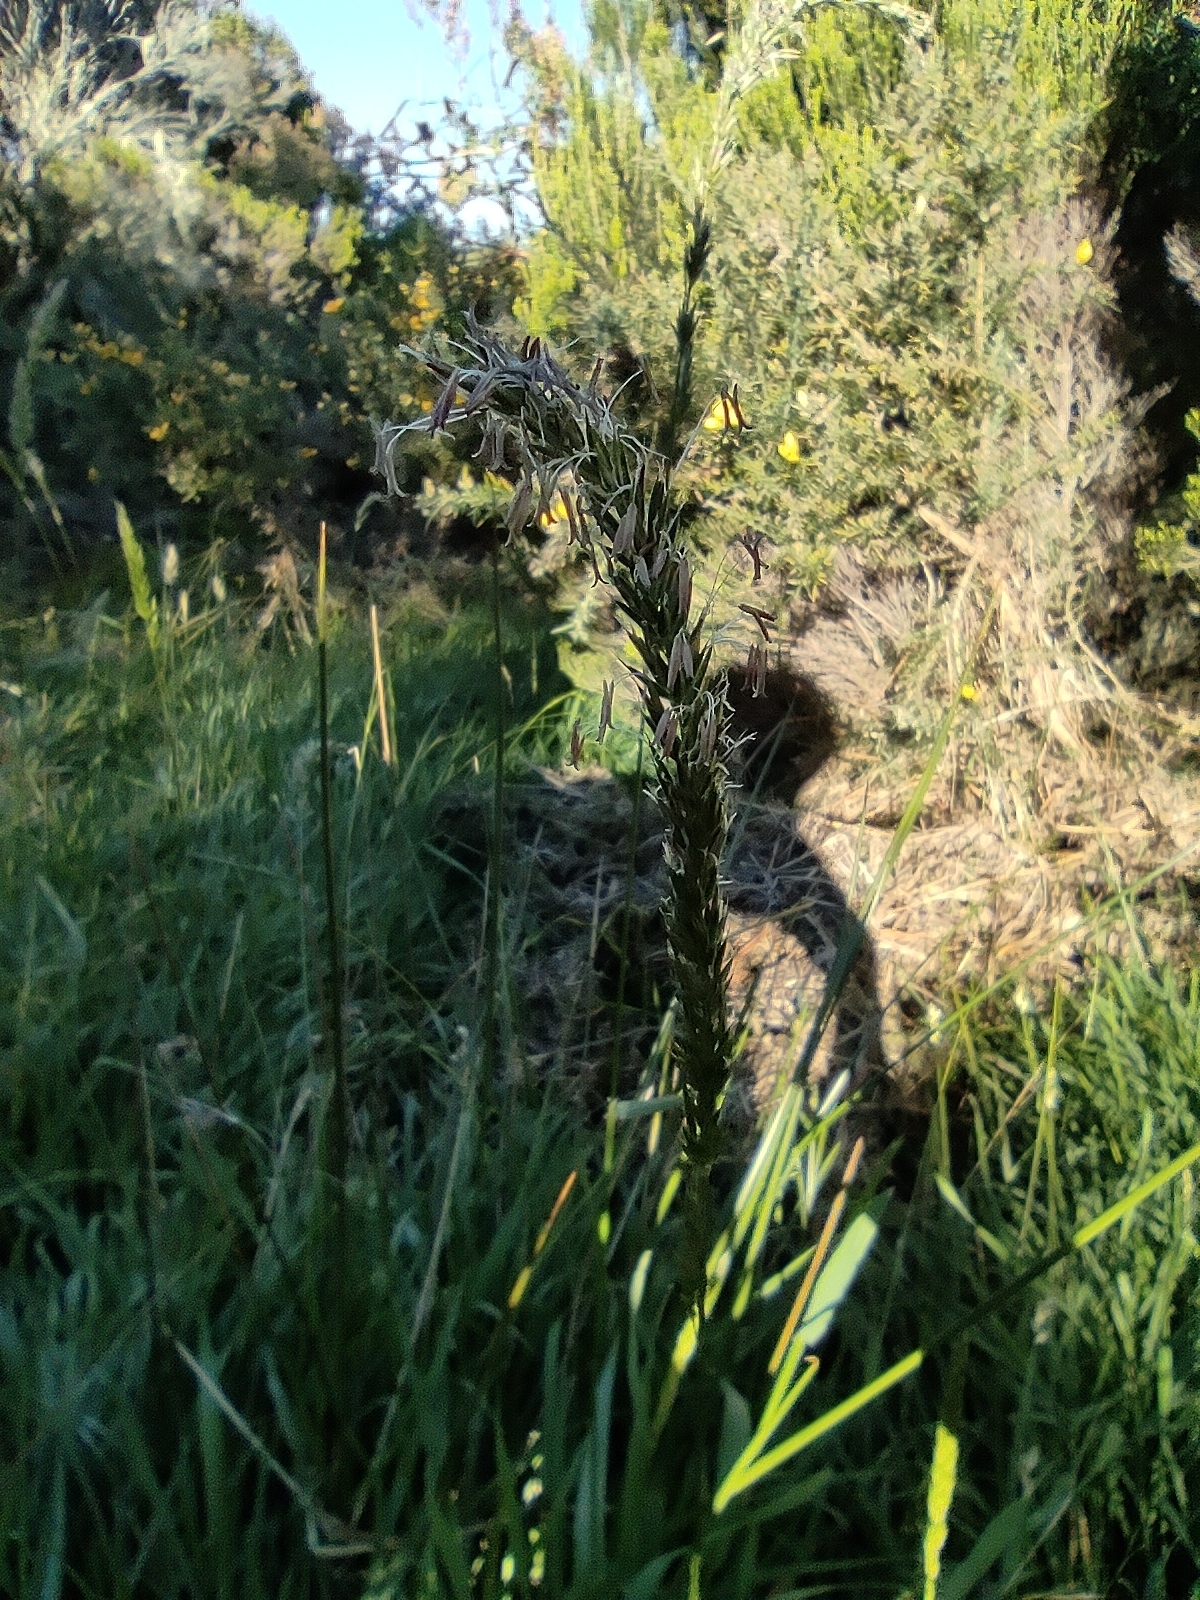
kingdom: Plantae
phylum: Tracheophyta
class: Liliopsida
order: Poales
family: Poaceae
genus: Anthoxanthum
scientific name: Anthoxanthum odoratum
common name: Sweet vernalgrass
